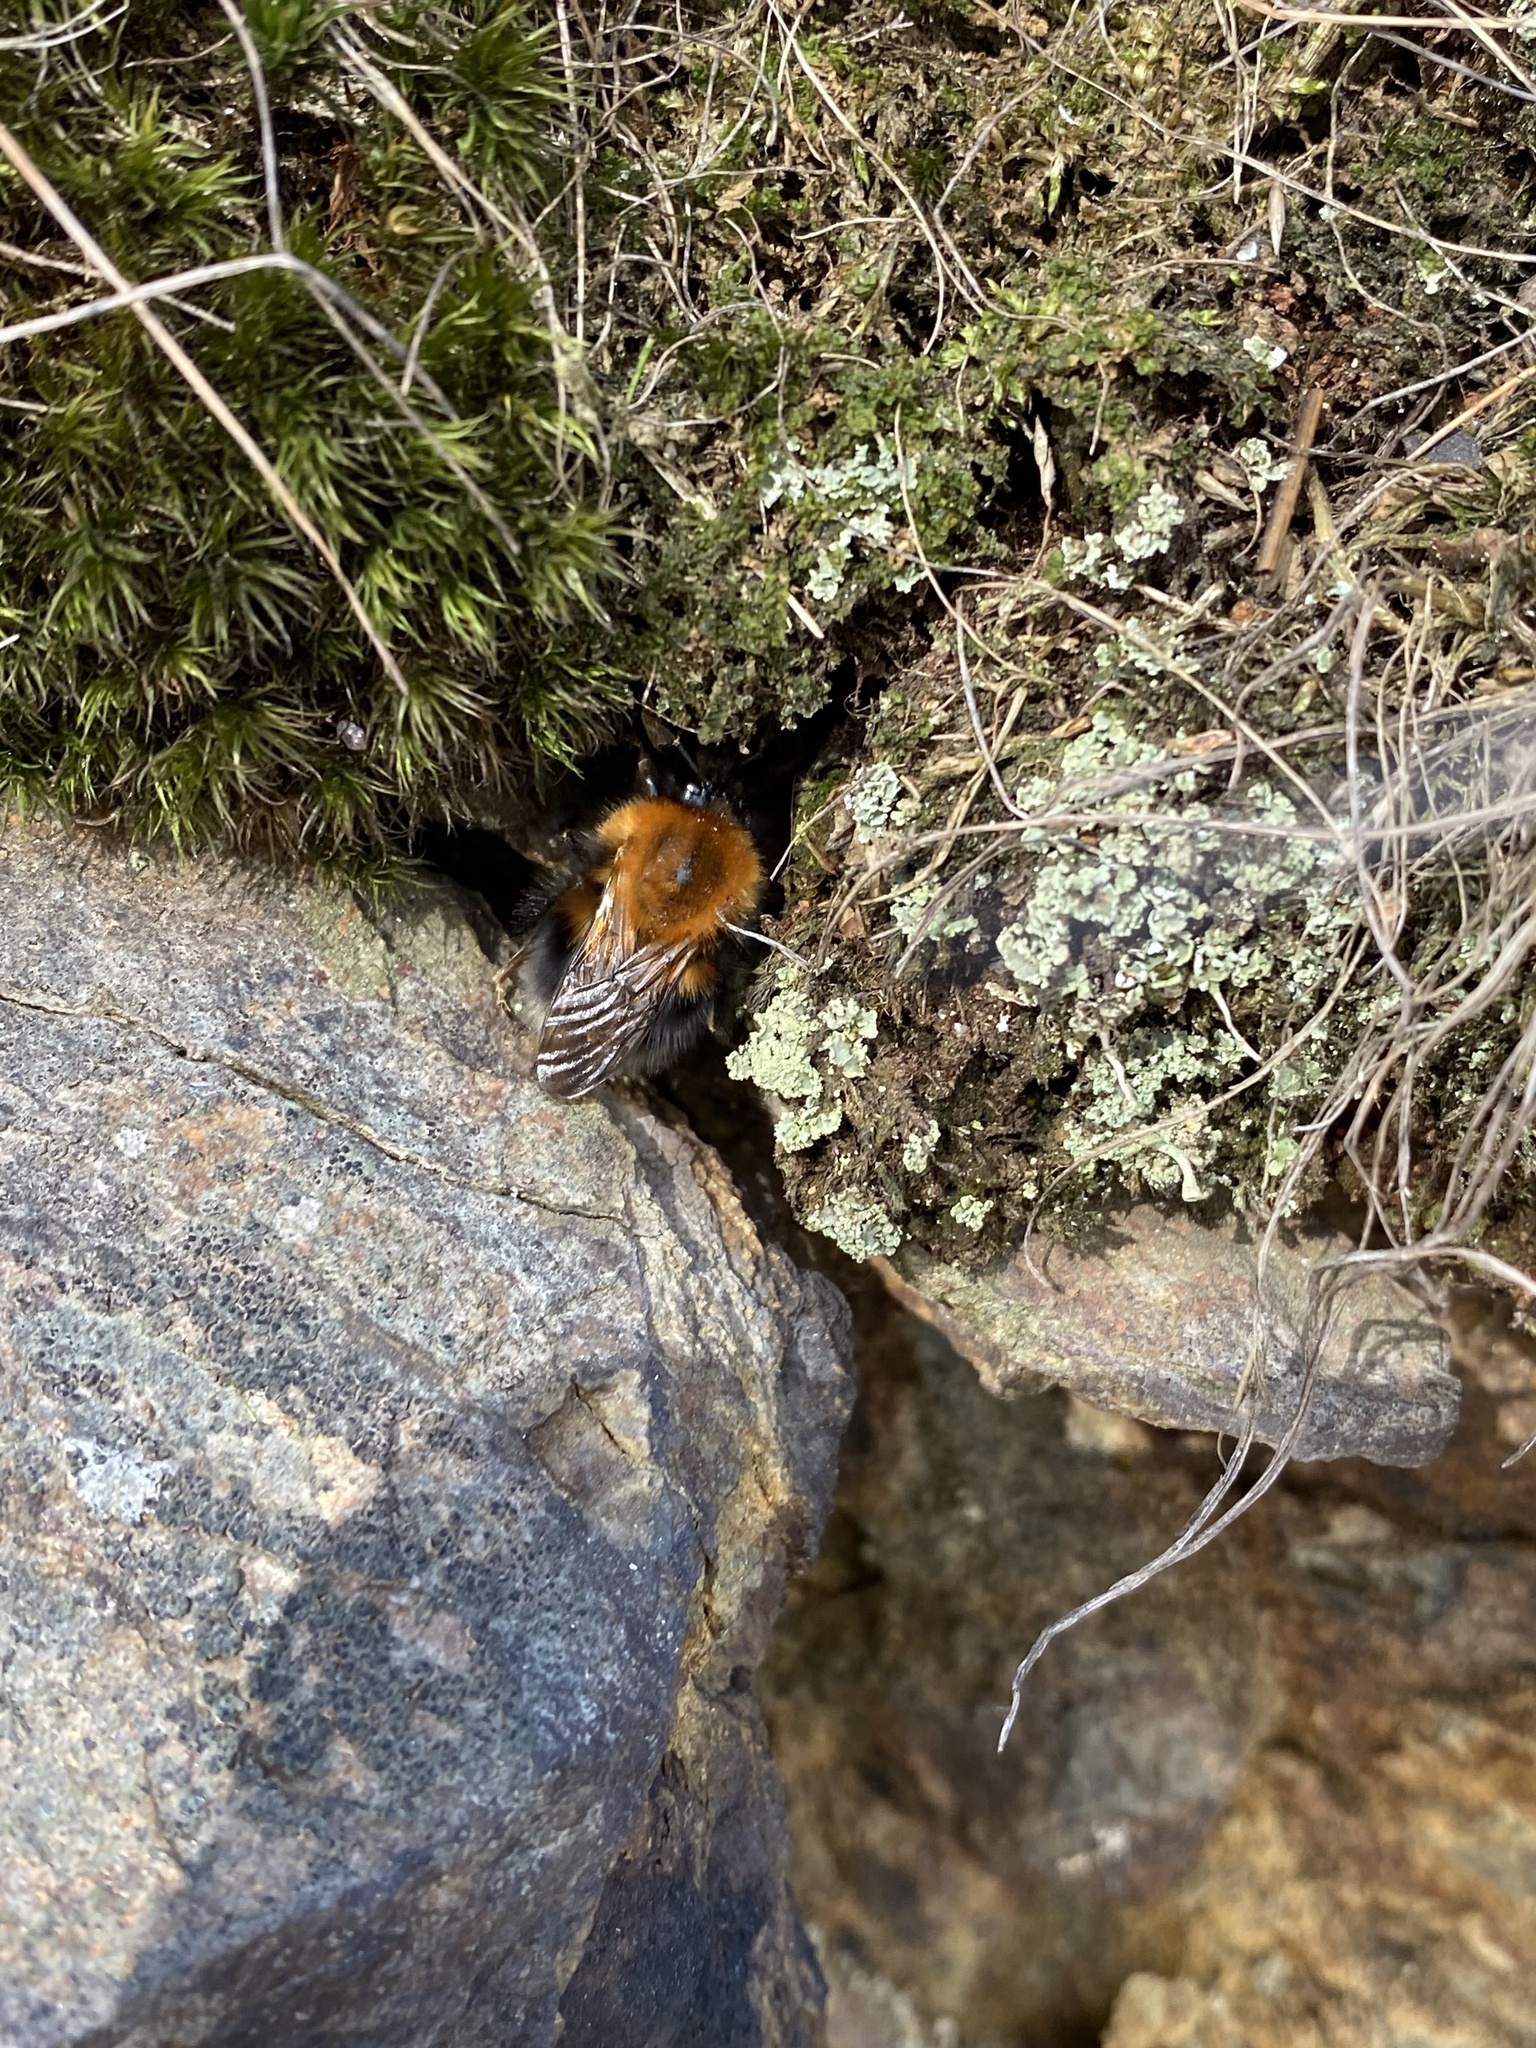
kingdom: Animalia
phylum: Arthropoda
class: Insecta
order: Hymenoptera
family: Apidae
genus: Bombus
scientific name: Bombus hypnorum
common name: New garden bumblebee
